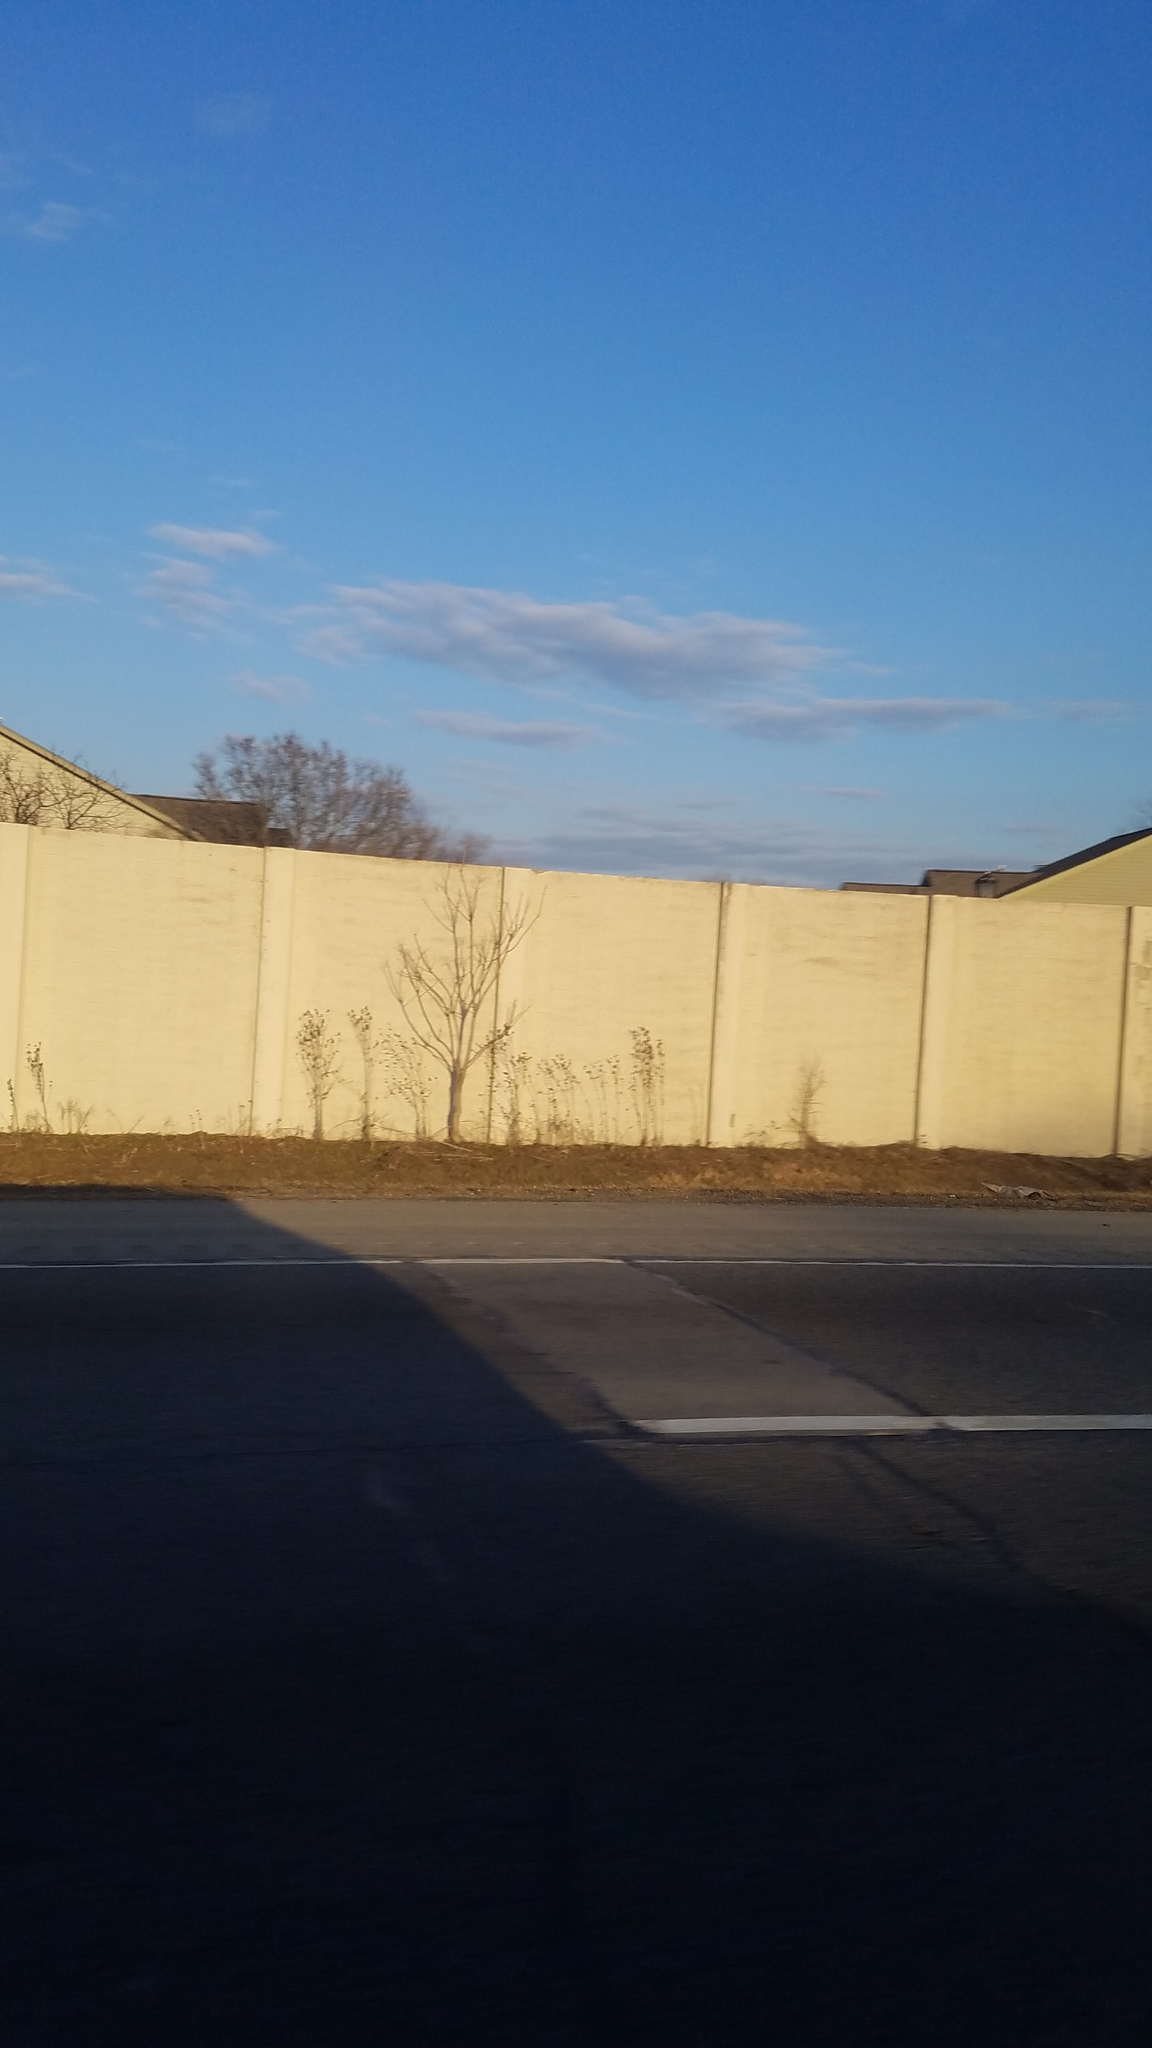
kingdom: Plantae
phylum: Tracheophyta
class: Magnoliopsida
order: Dipsacales
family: Caprifoliaceae
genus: Dipsacus
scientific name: Dipsacus
